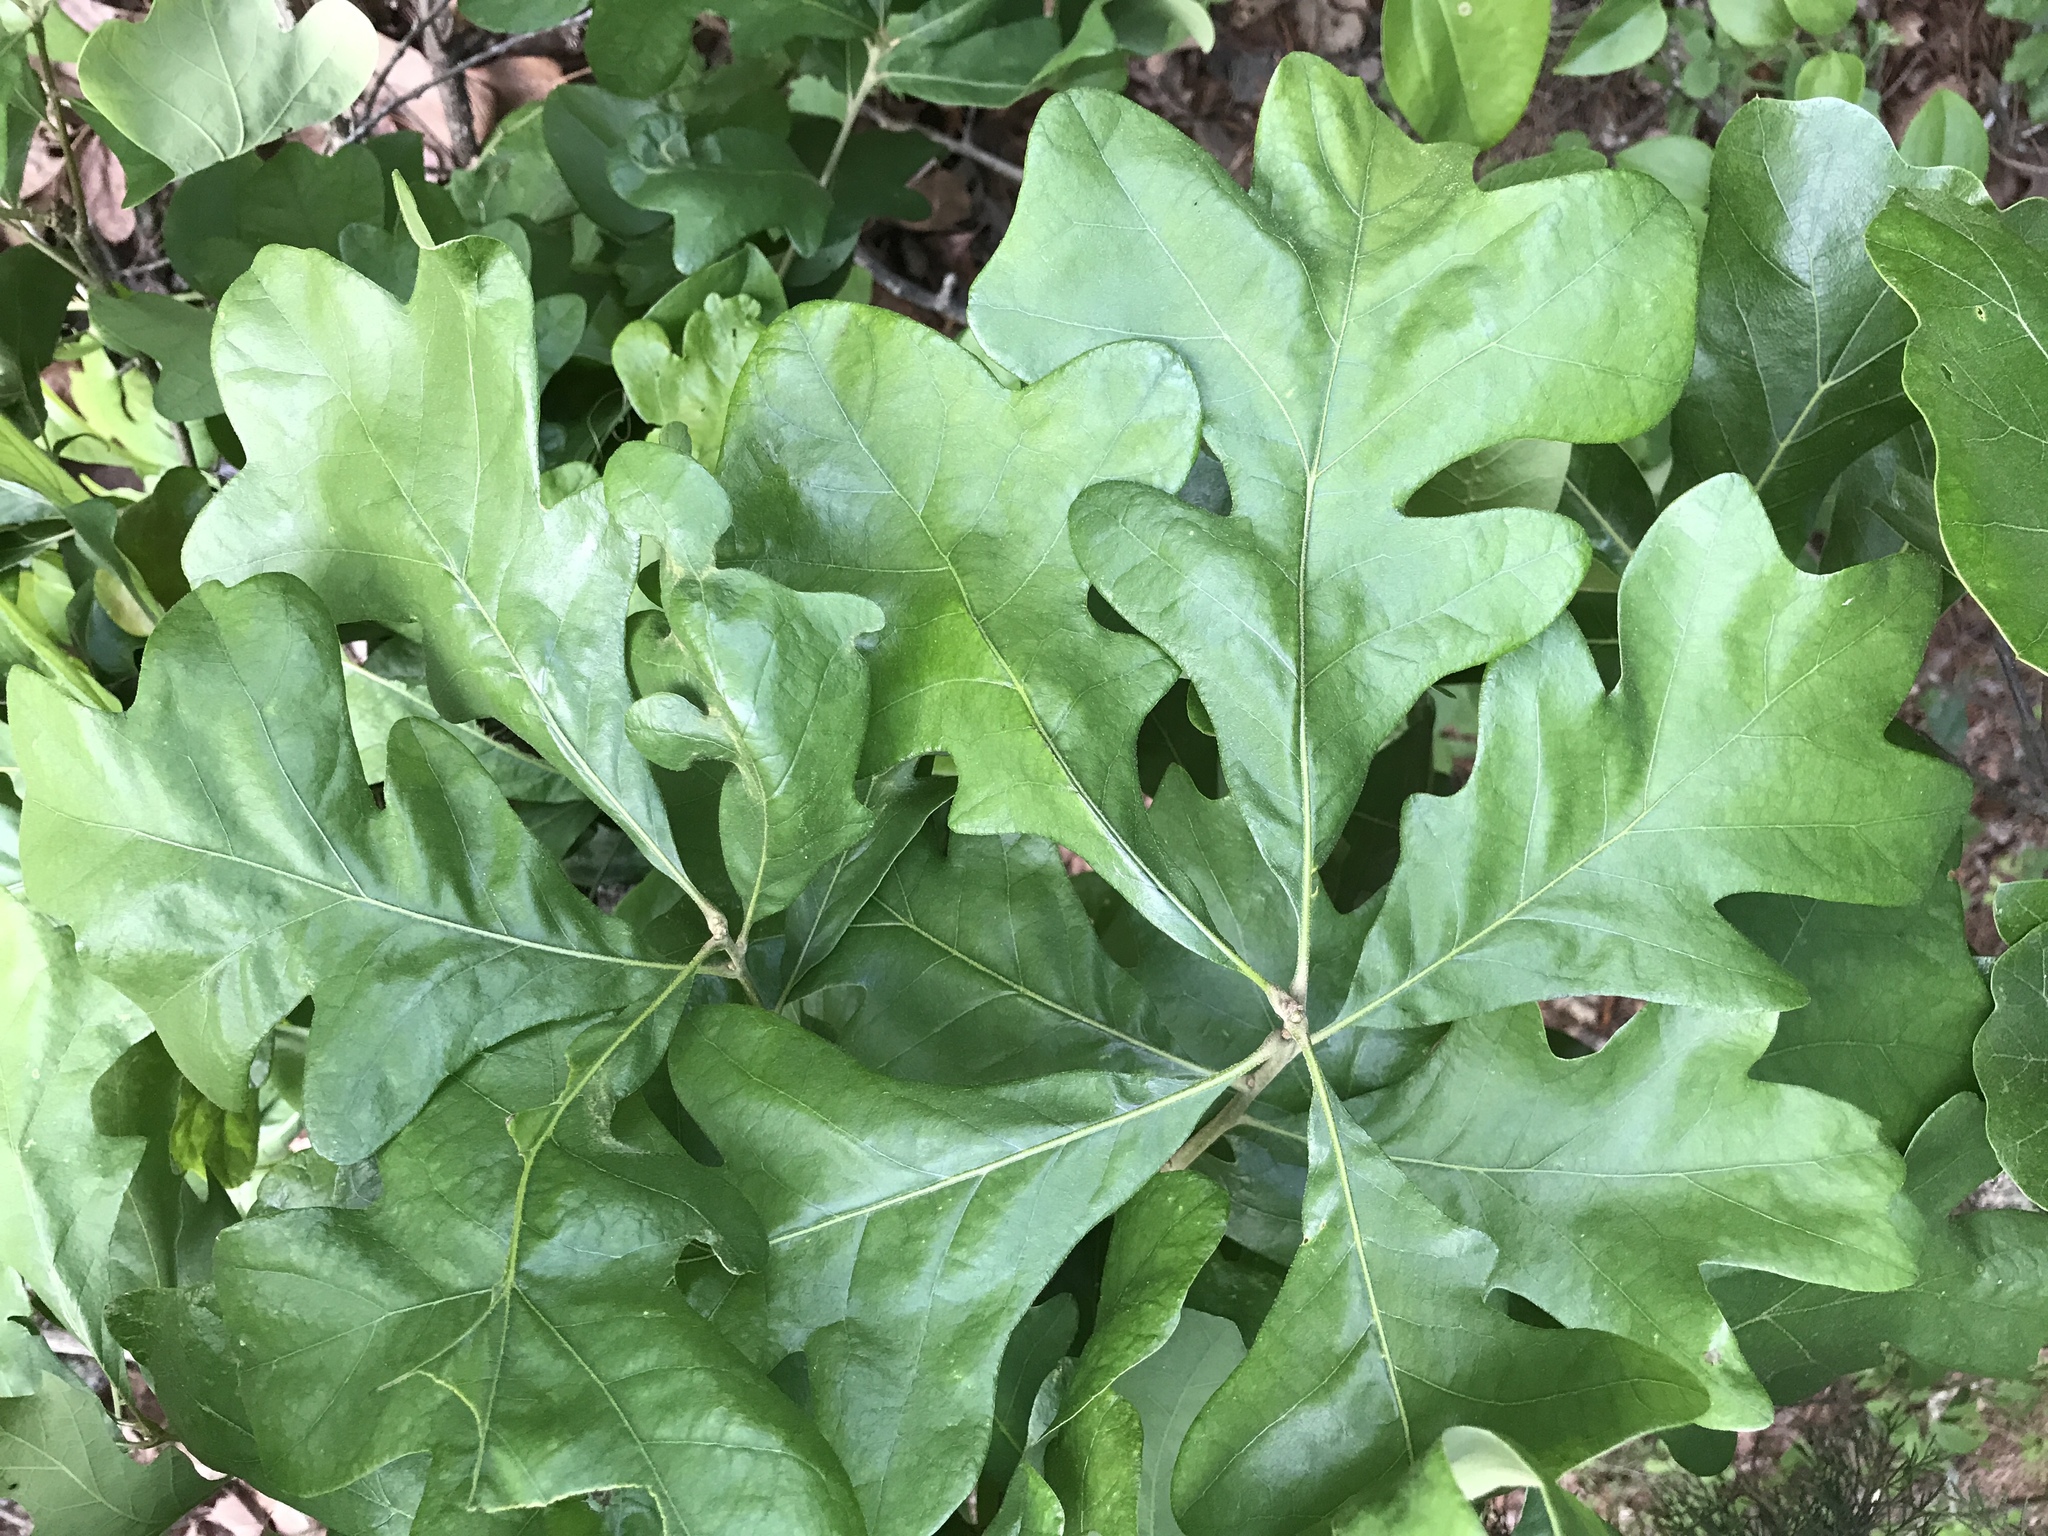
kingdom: Plantae
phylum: Tracheophyta
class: Magnoliopsida
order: Fagales
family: Fagaceae
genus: Quercus
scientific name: Quercus stellata
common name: Post oak
